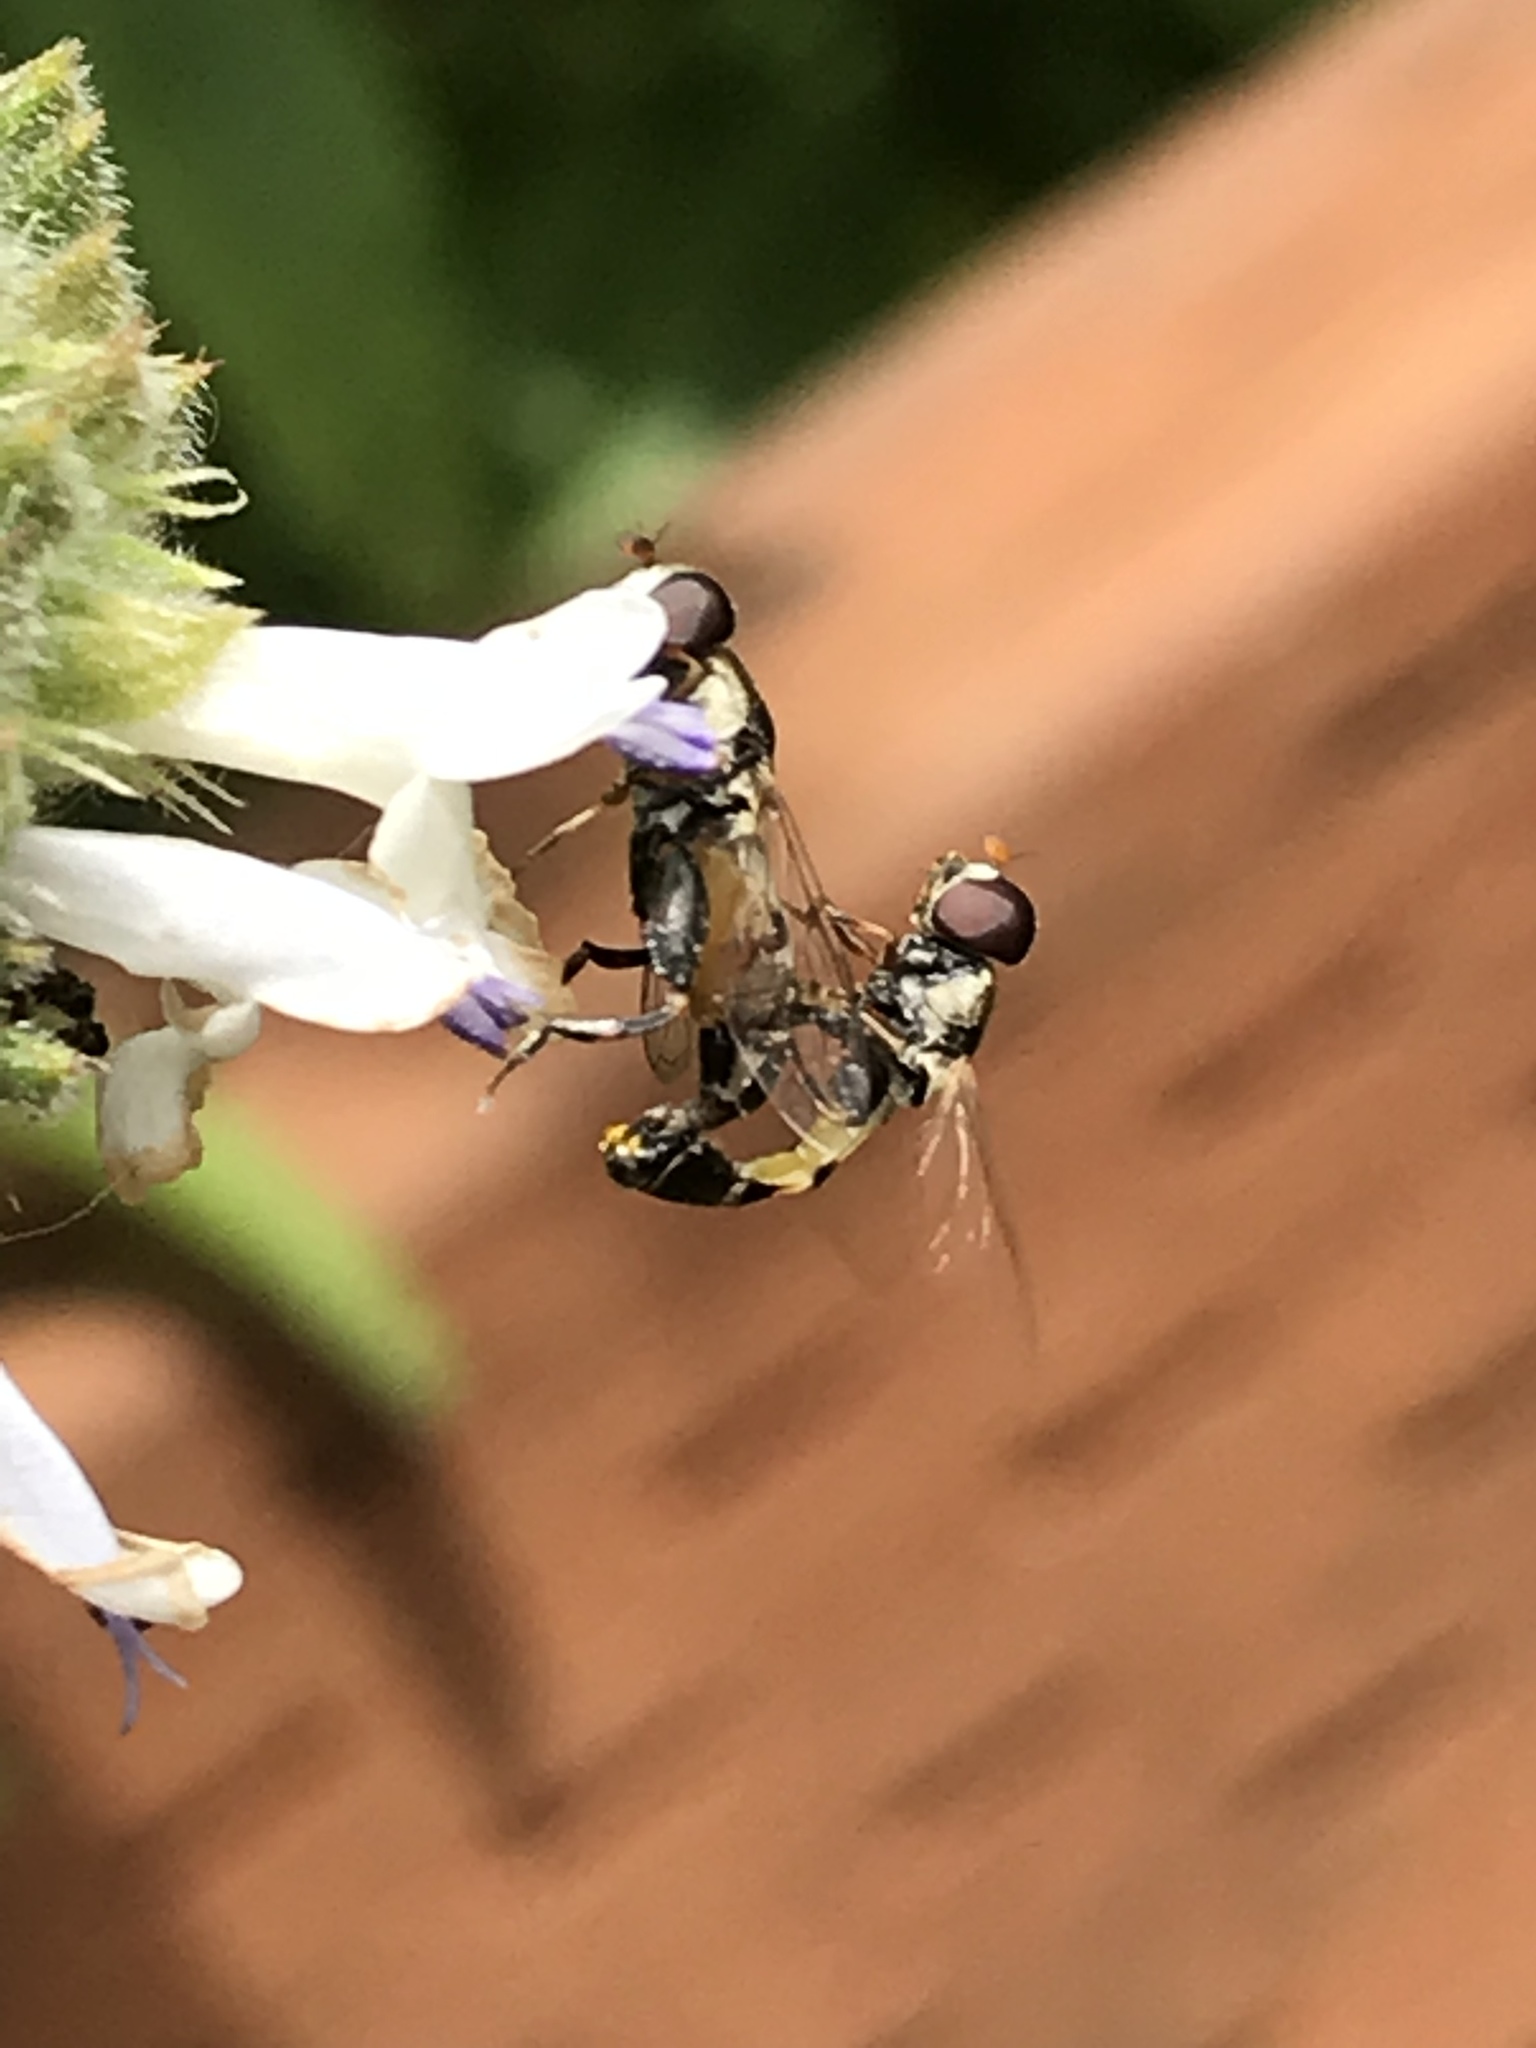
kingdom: Animalia
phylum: Arthropoda
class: Insecta
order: Diptera
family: Syrphidae
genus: Syritta
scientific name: Syritta pipiens
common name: Hover fly
